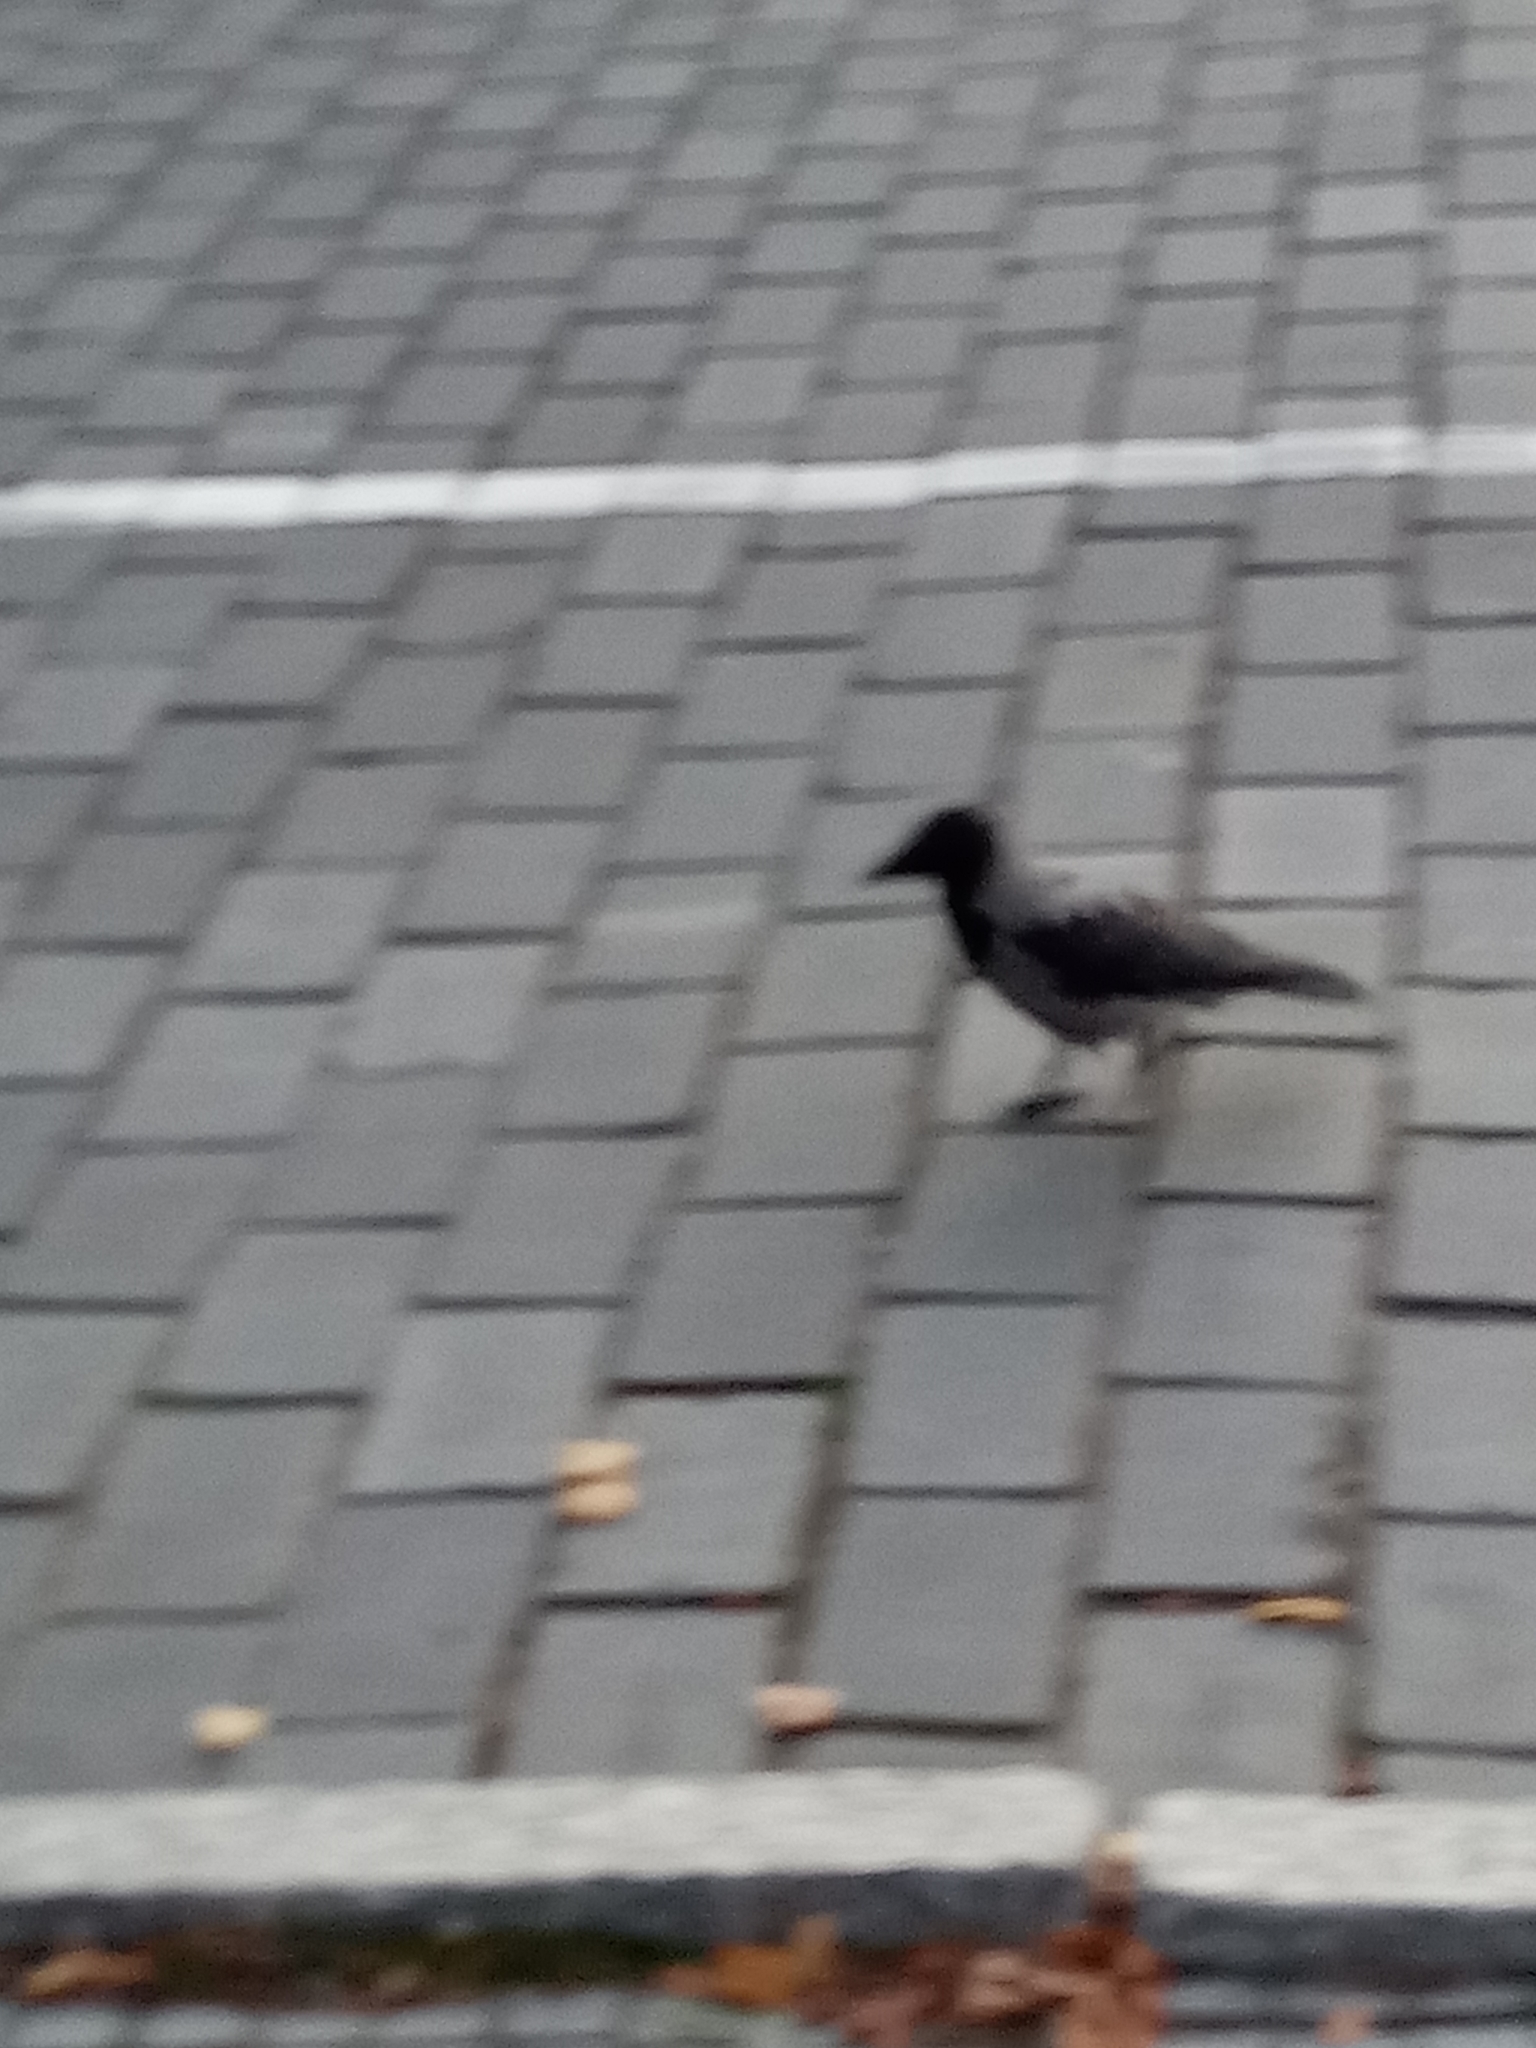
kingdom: Animalia
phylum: Chordata
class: Aves
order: Passeriformes
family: Corvidae
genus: Corvus
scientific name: Corvus cornix
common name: Hooded crow
